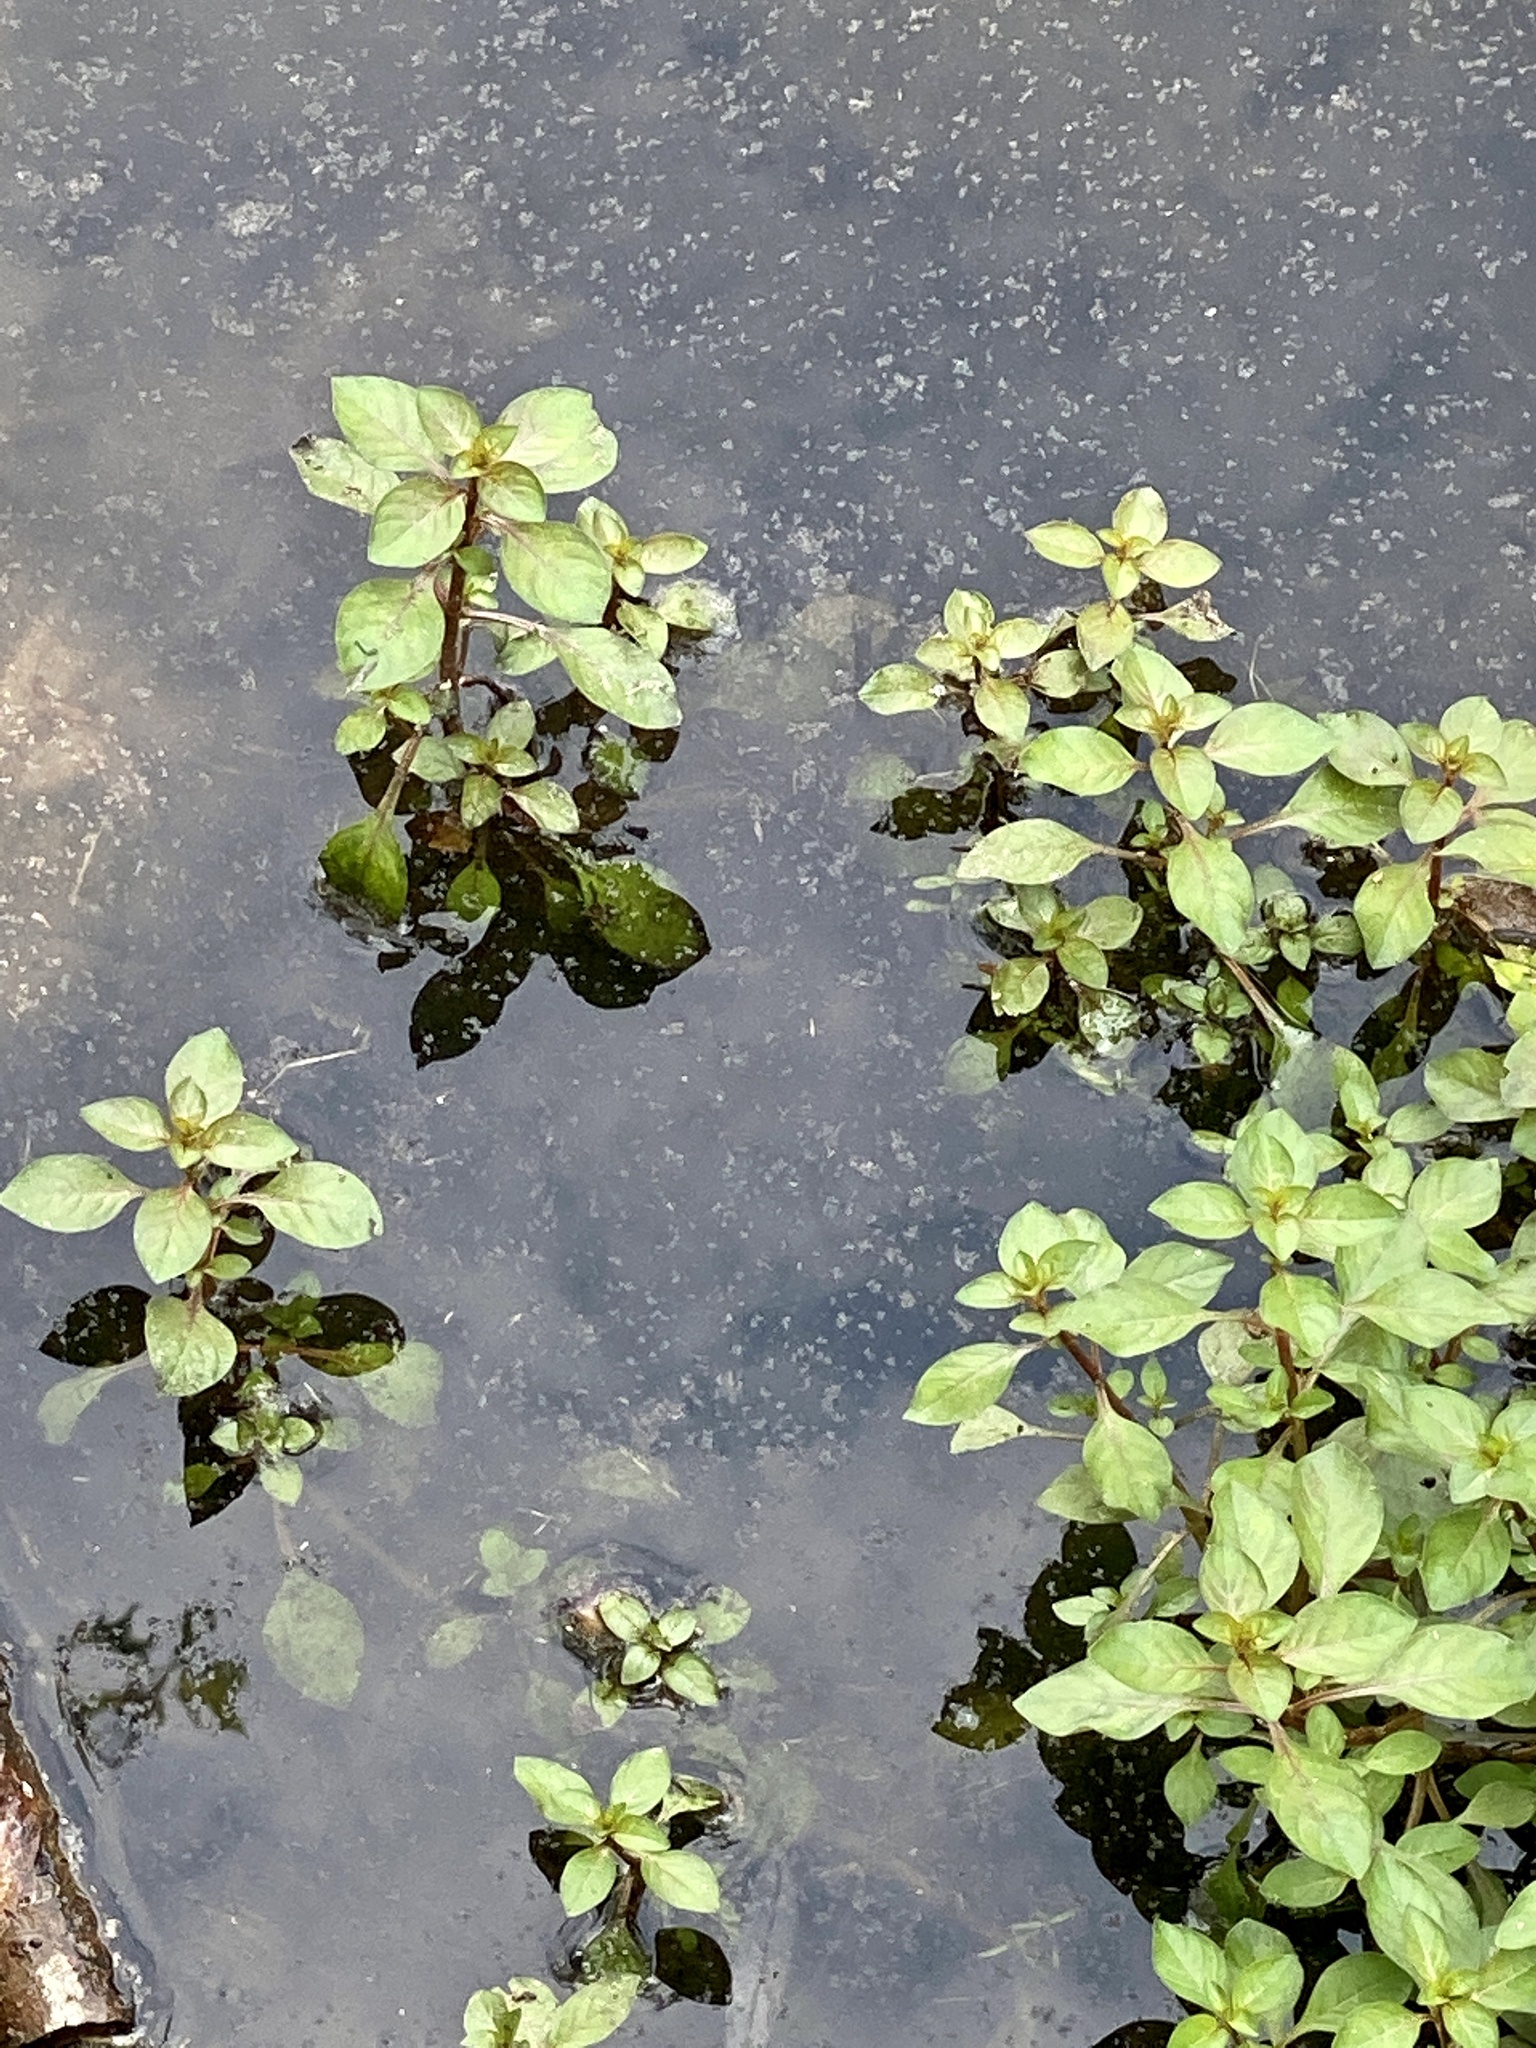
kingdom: Plantae
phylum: Tracheophyta
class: Magnoliopsida
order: Myrtales
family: Onagraceae
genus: Ludwigia
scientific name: Ludwigia palustris
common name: Hampshire-purslane
